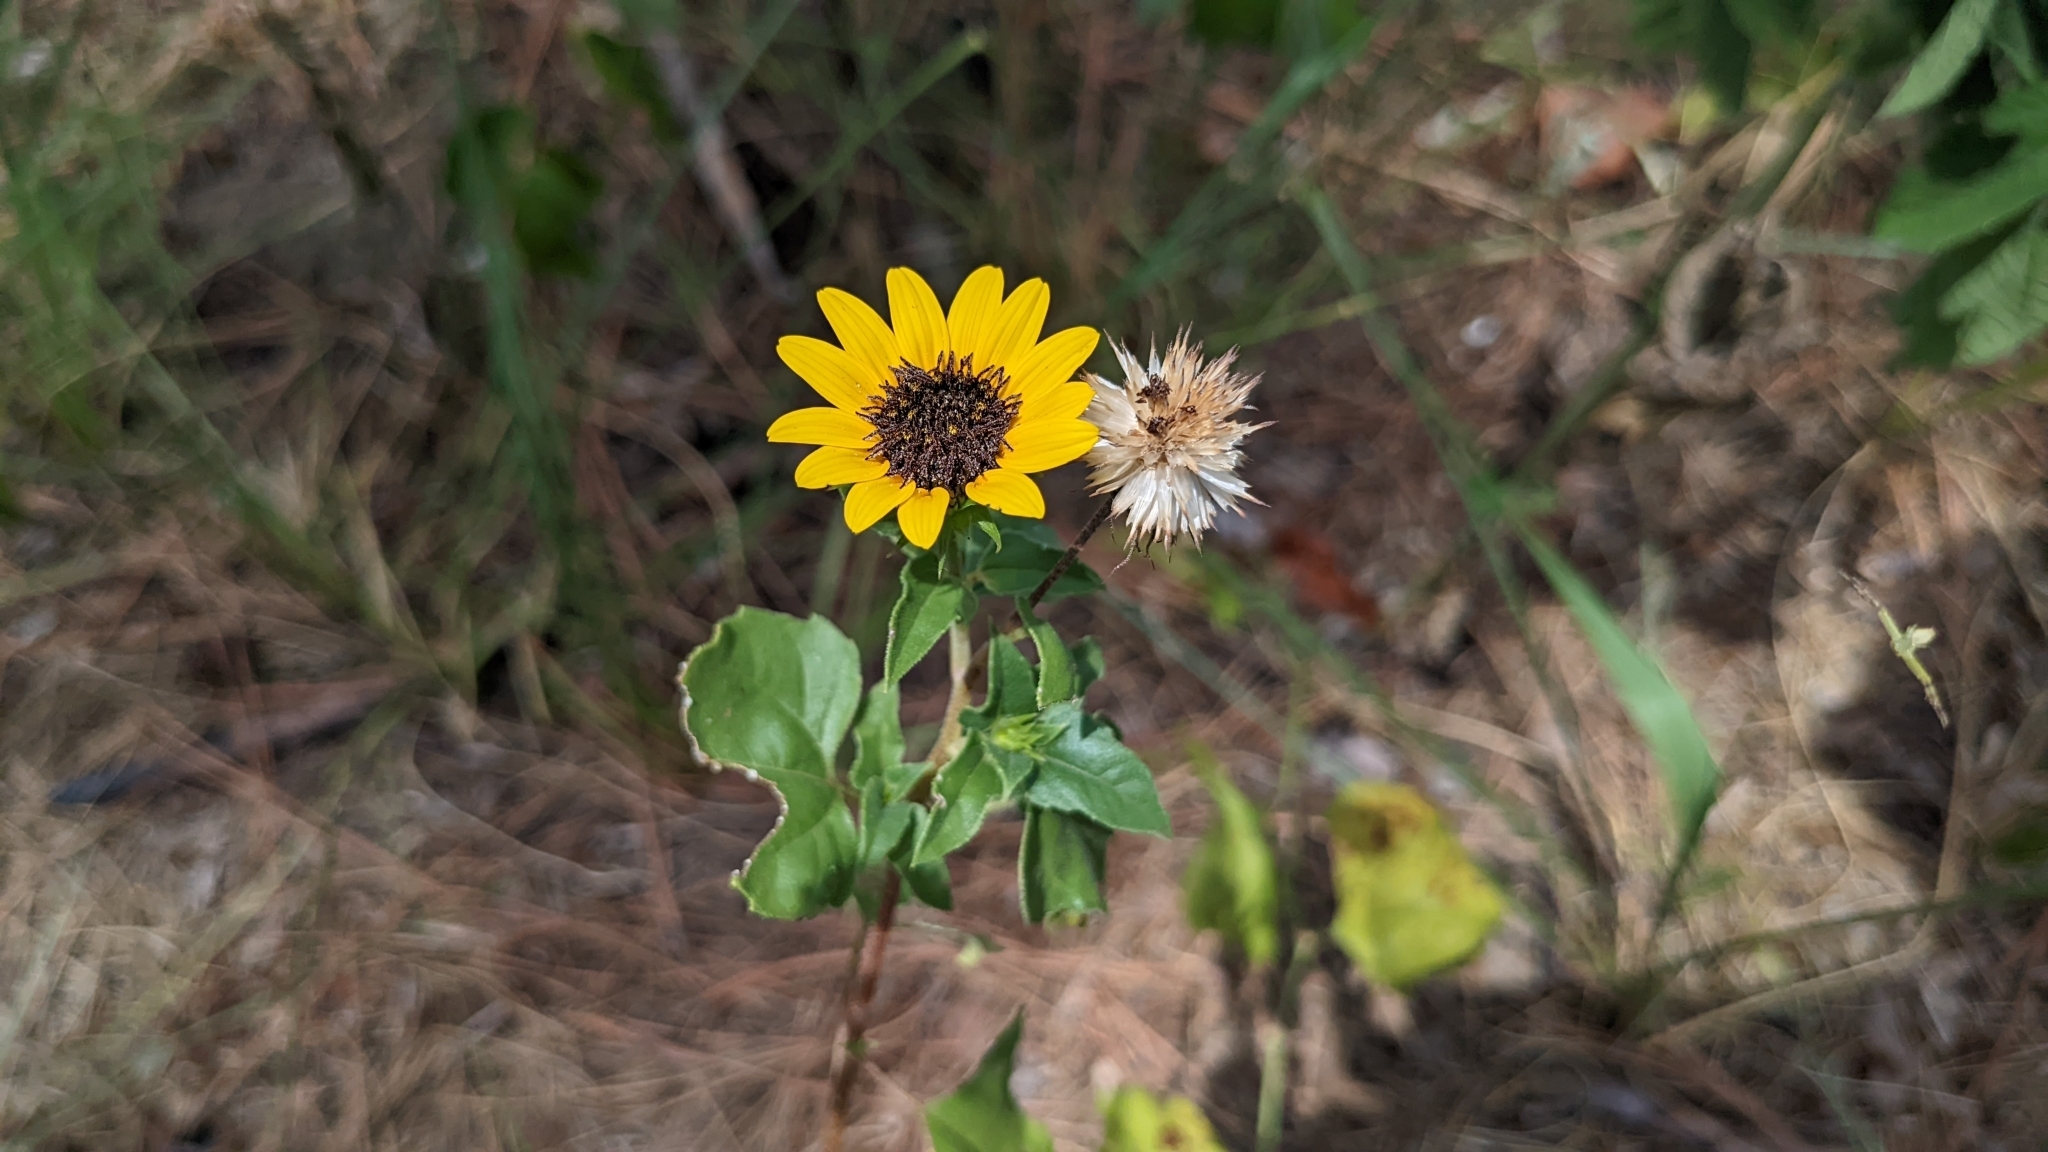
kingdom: Plantae
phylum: Tracheophyta
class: Magnoliopsida
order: Asterales
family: Asteraceae
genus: Helianthus
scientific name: Helianthus debilis
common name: Weak sunflower
